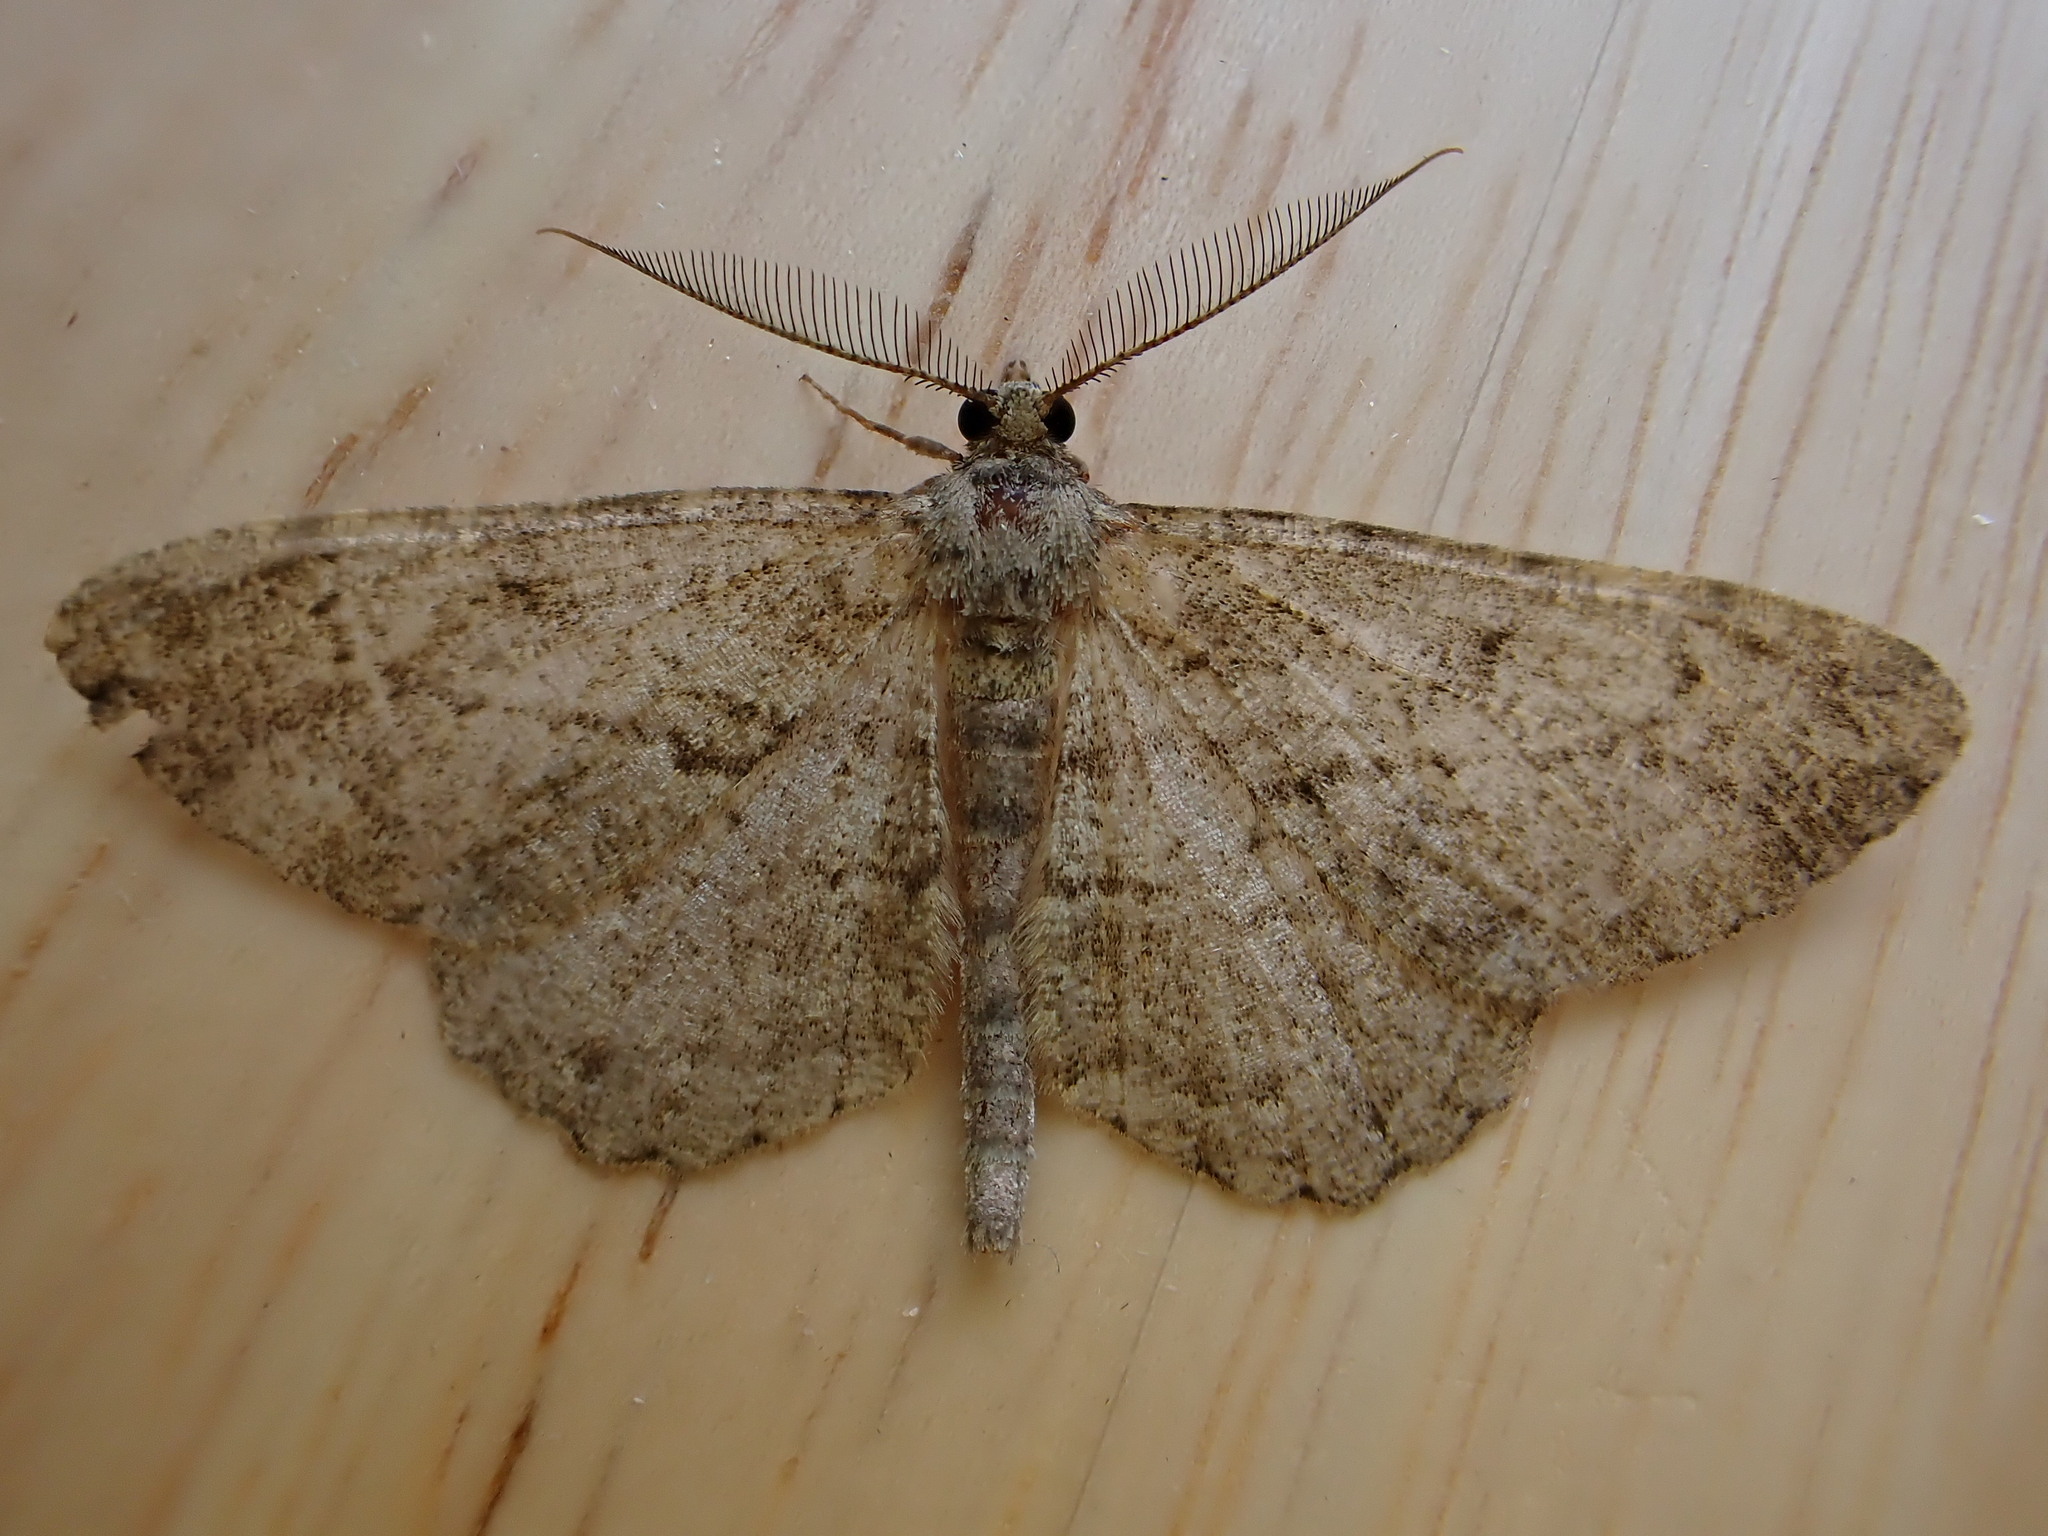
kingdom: Animalia
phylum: Arthropoda
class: Insecta
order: Lepidoptera
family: Geometridae
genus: Peribatodes
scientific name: Peribatodes rhomboidaria
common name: Willow beauty
